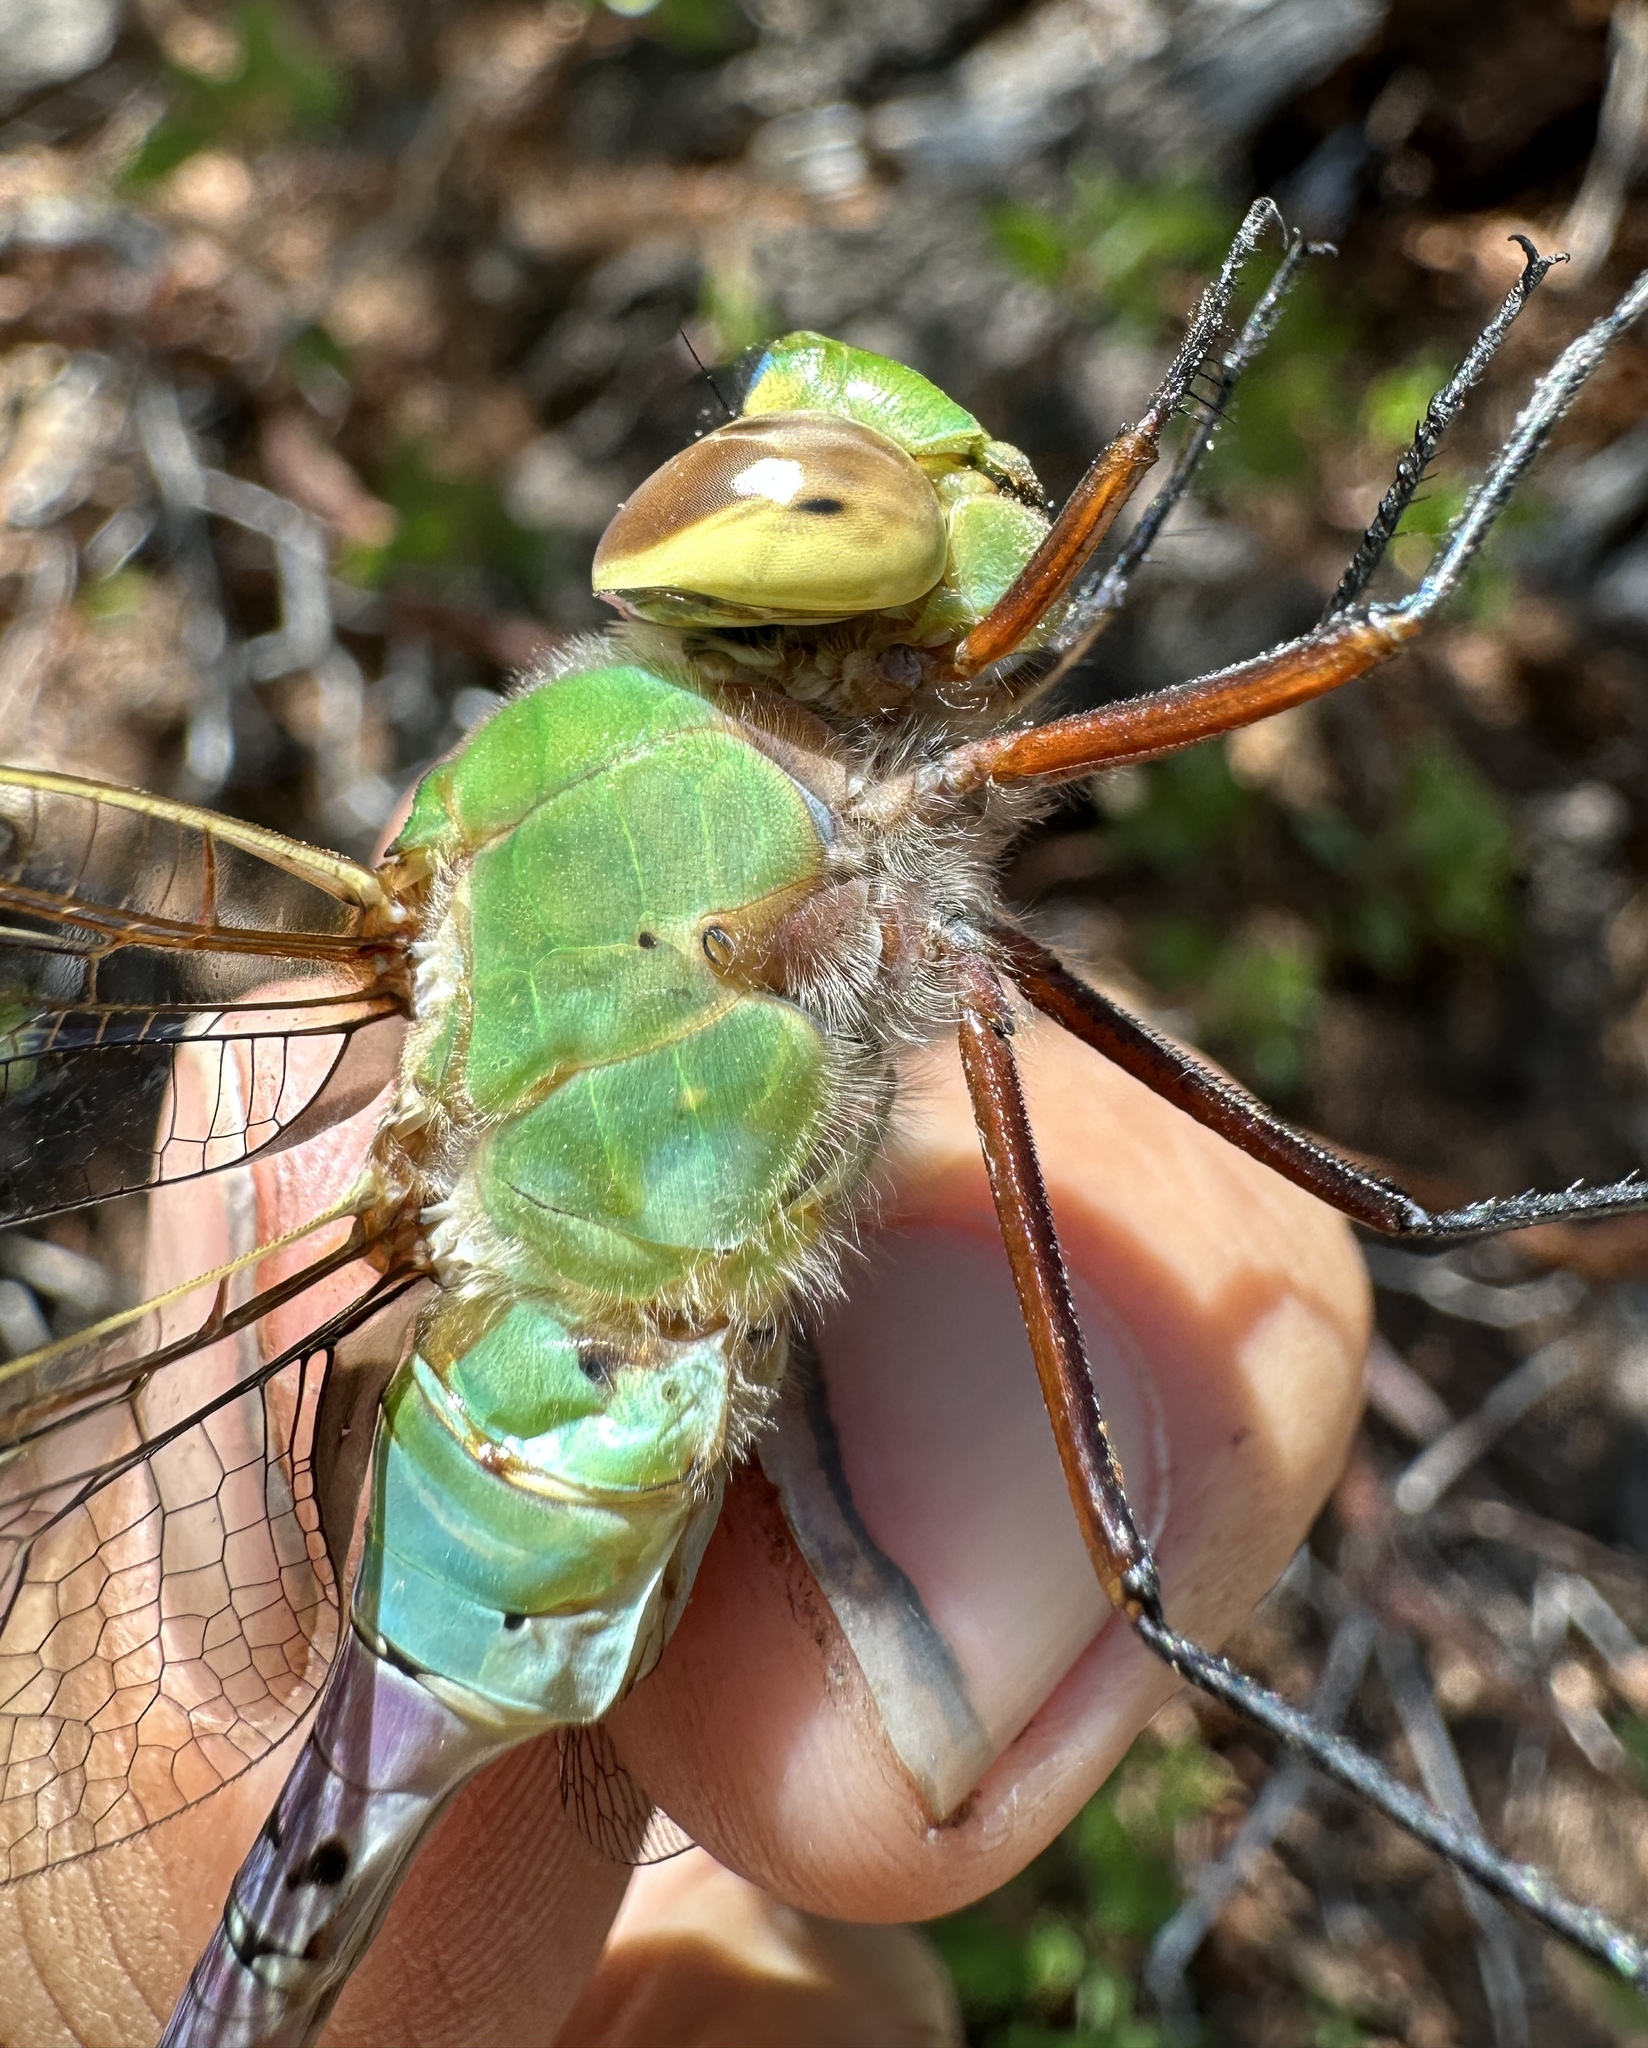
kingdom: Animalia
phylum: Arthropoda
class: Insecta
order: Odonata
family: Aeshnidae
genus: Anax
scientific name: Anax junius
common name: Common green darner
